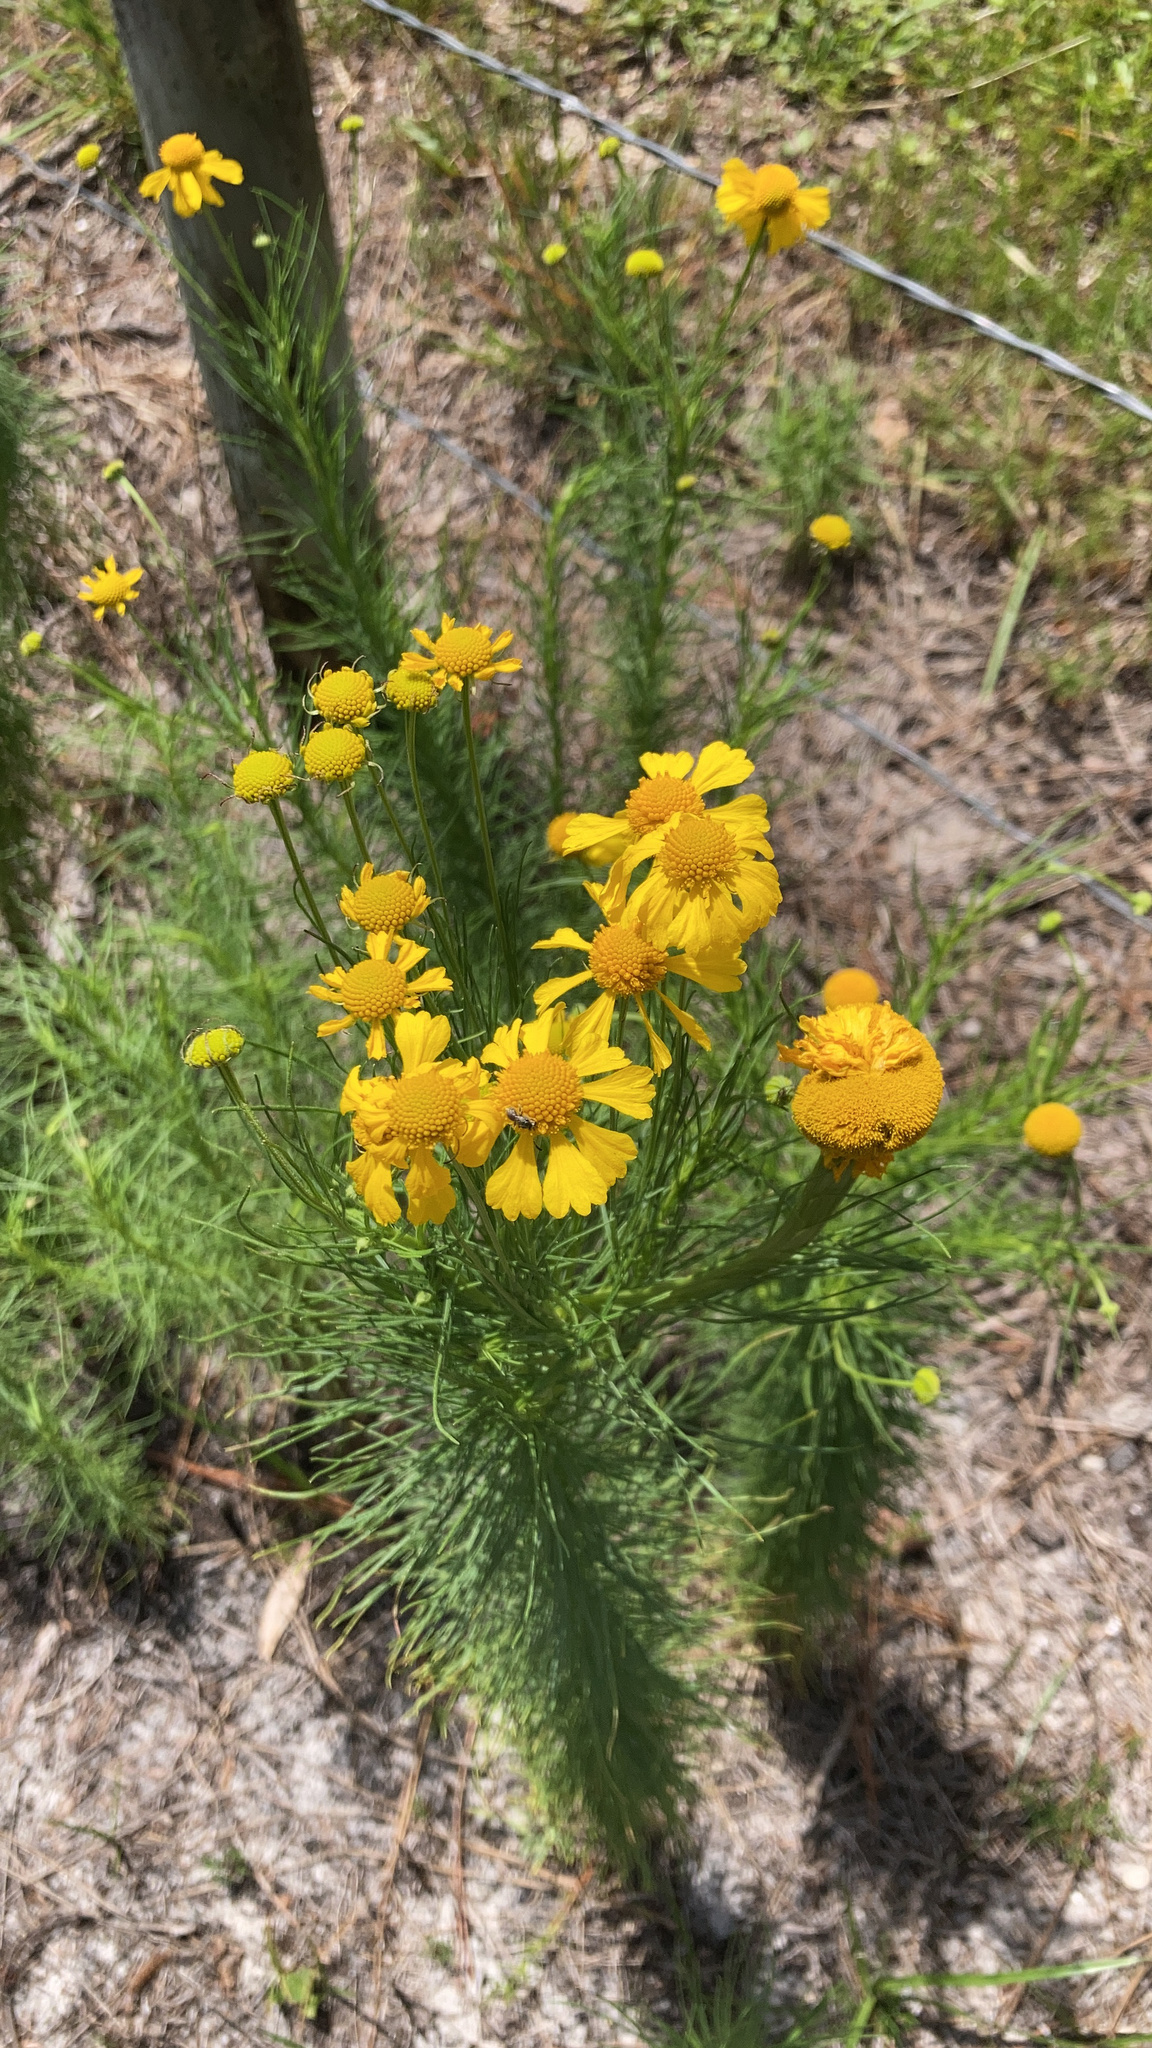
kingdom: Plantae
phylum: Tracheophyta
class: Magnoliopsida
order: Asterales
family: Asteraceae
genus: Helenium
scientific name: Helenium amarum
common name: Bitter sneezeweed
